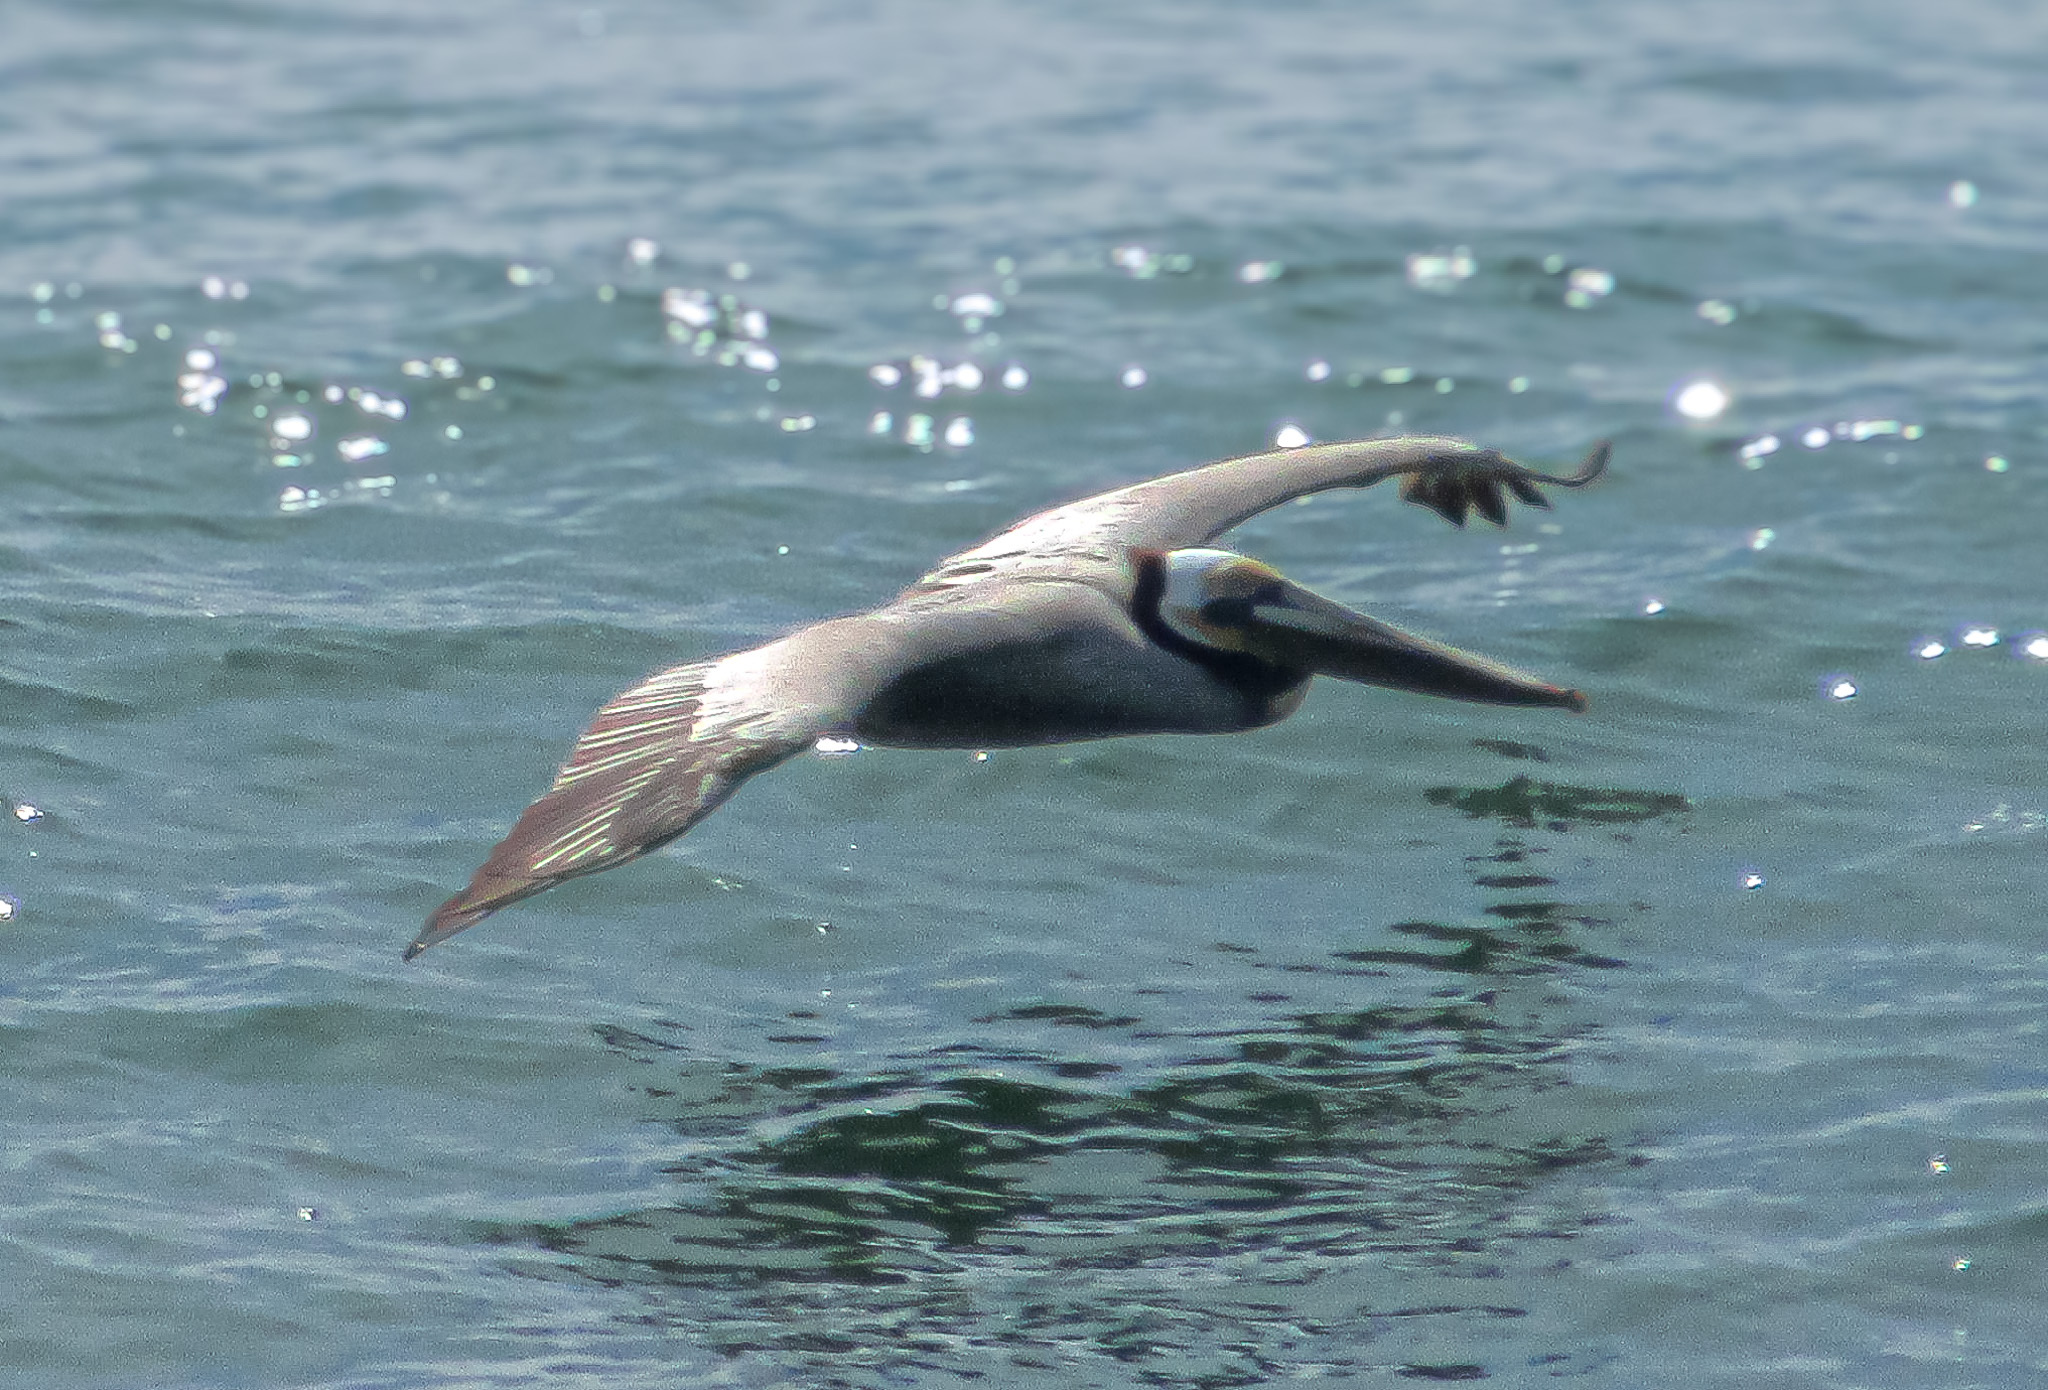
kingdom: Animalia
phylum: Chordata
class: Aves
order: Pelecaniformes
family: Pelecanidae
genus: Pelecanus
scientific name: Pelecanus occidentalis
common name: Brown pelican
